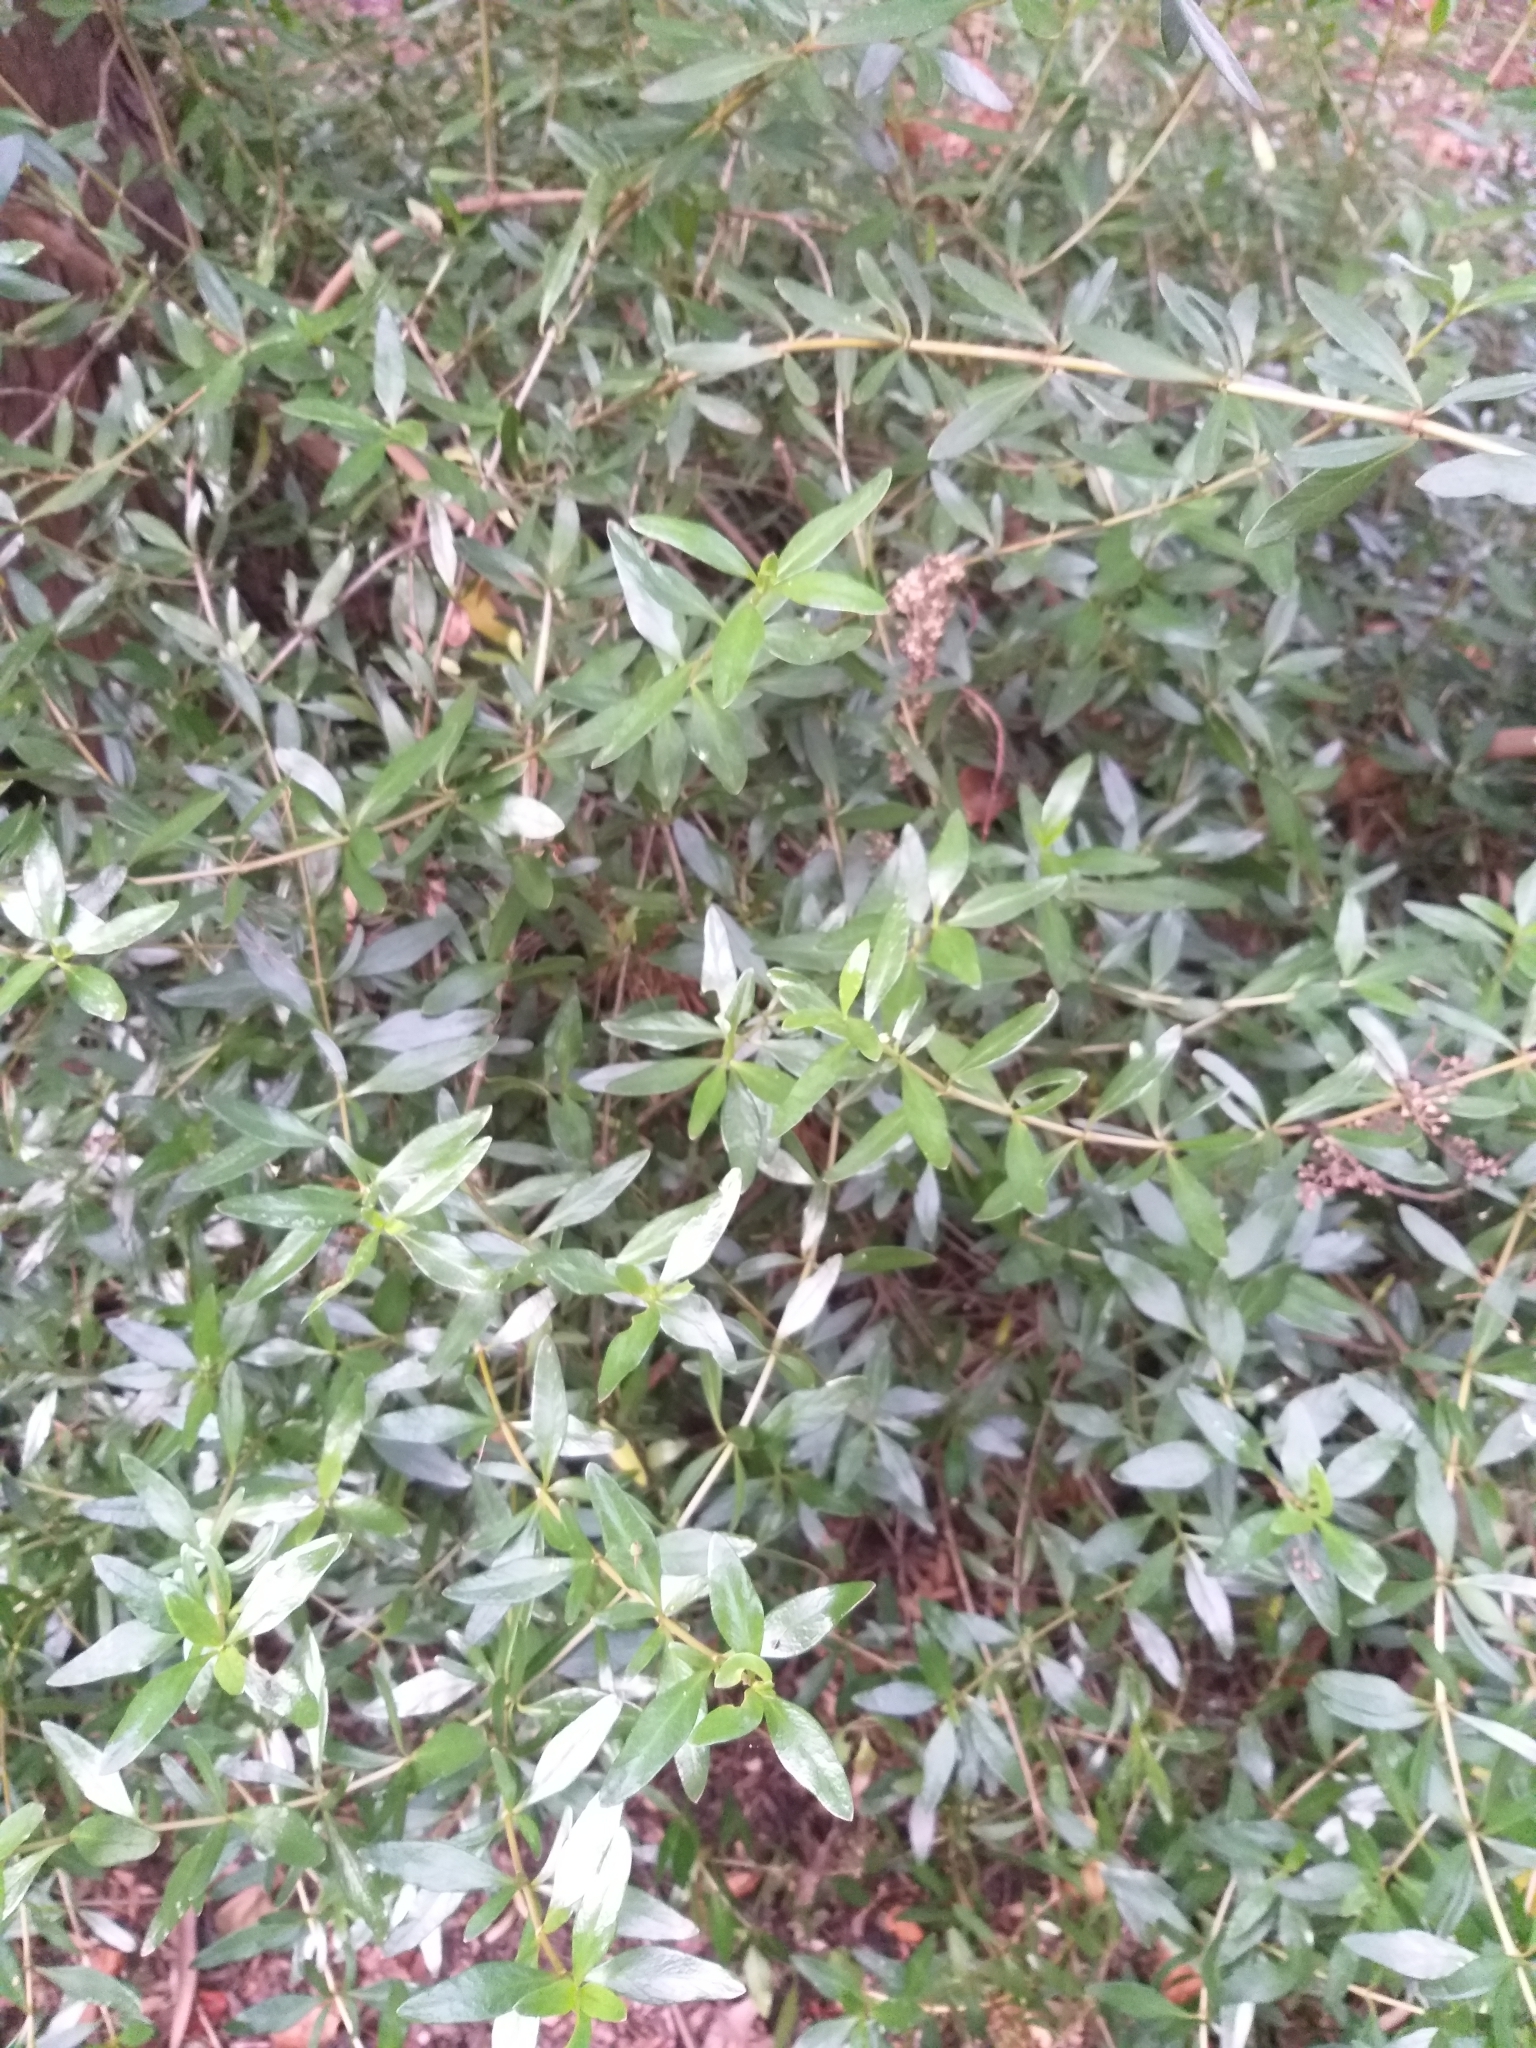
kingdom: Plantae
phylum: Tracheophyta
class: Magnoliopsida
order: Gentianales
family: Rubiaceae
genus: Coprosma
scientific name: Coprosma cunninghamii
